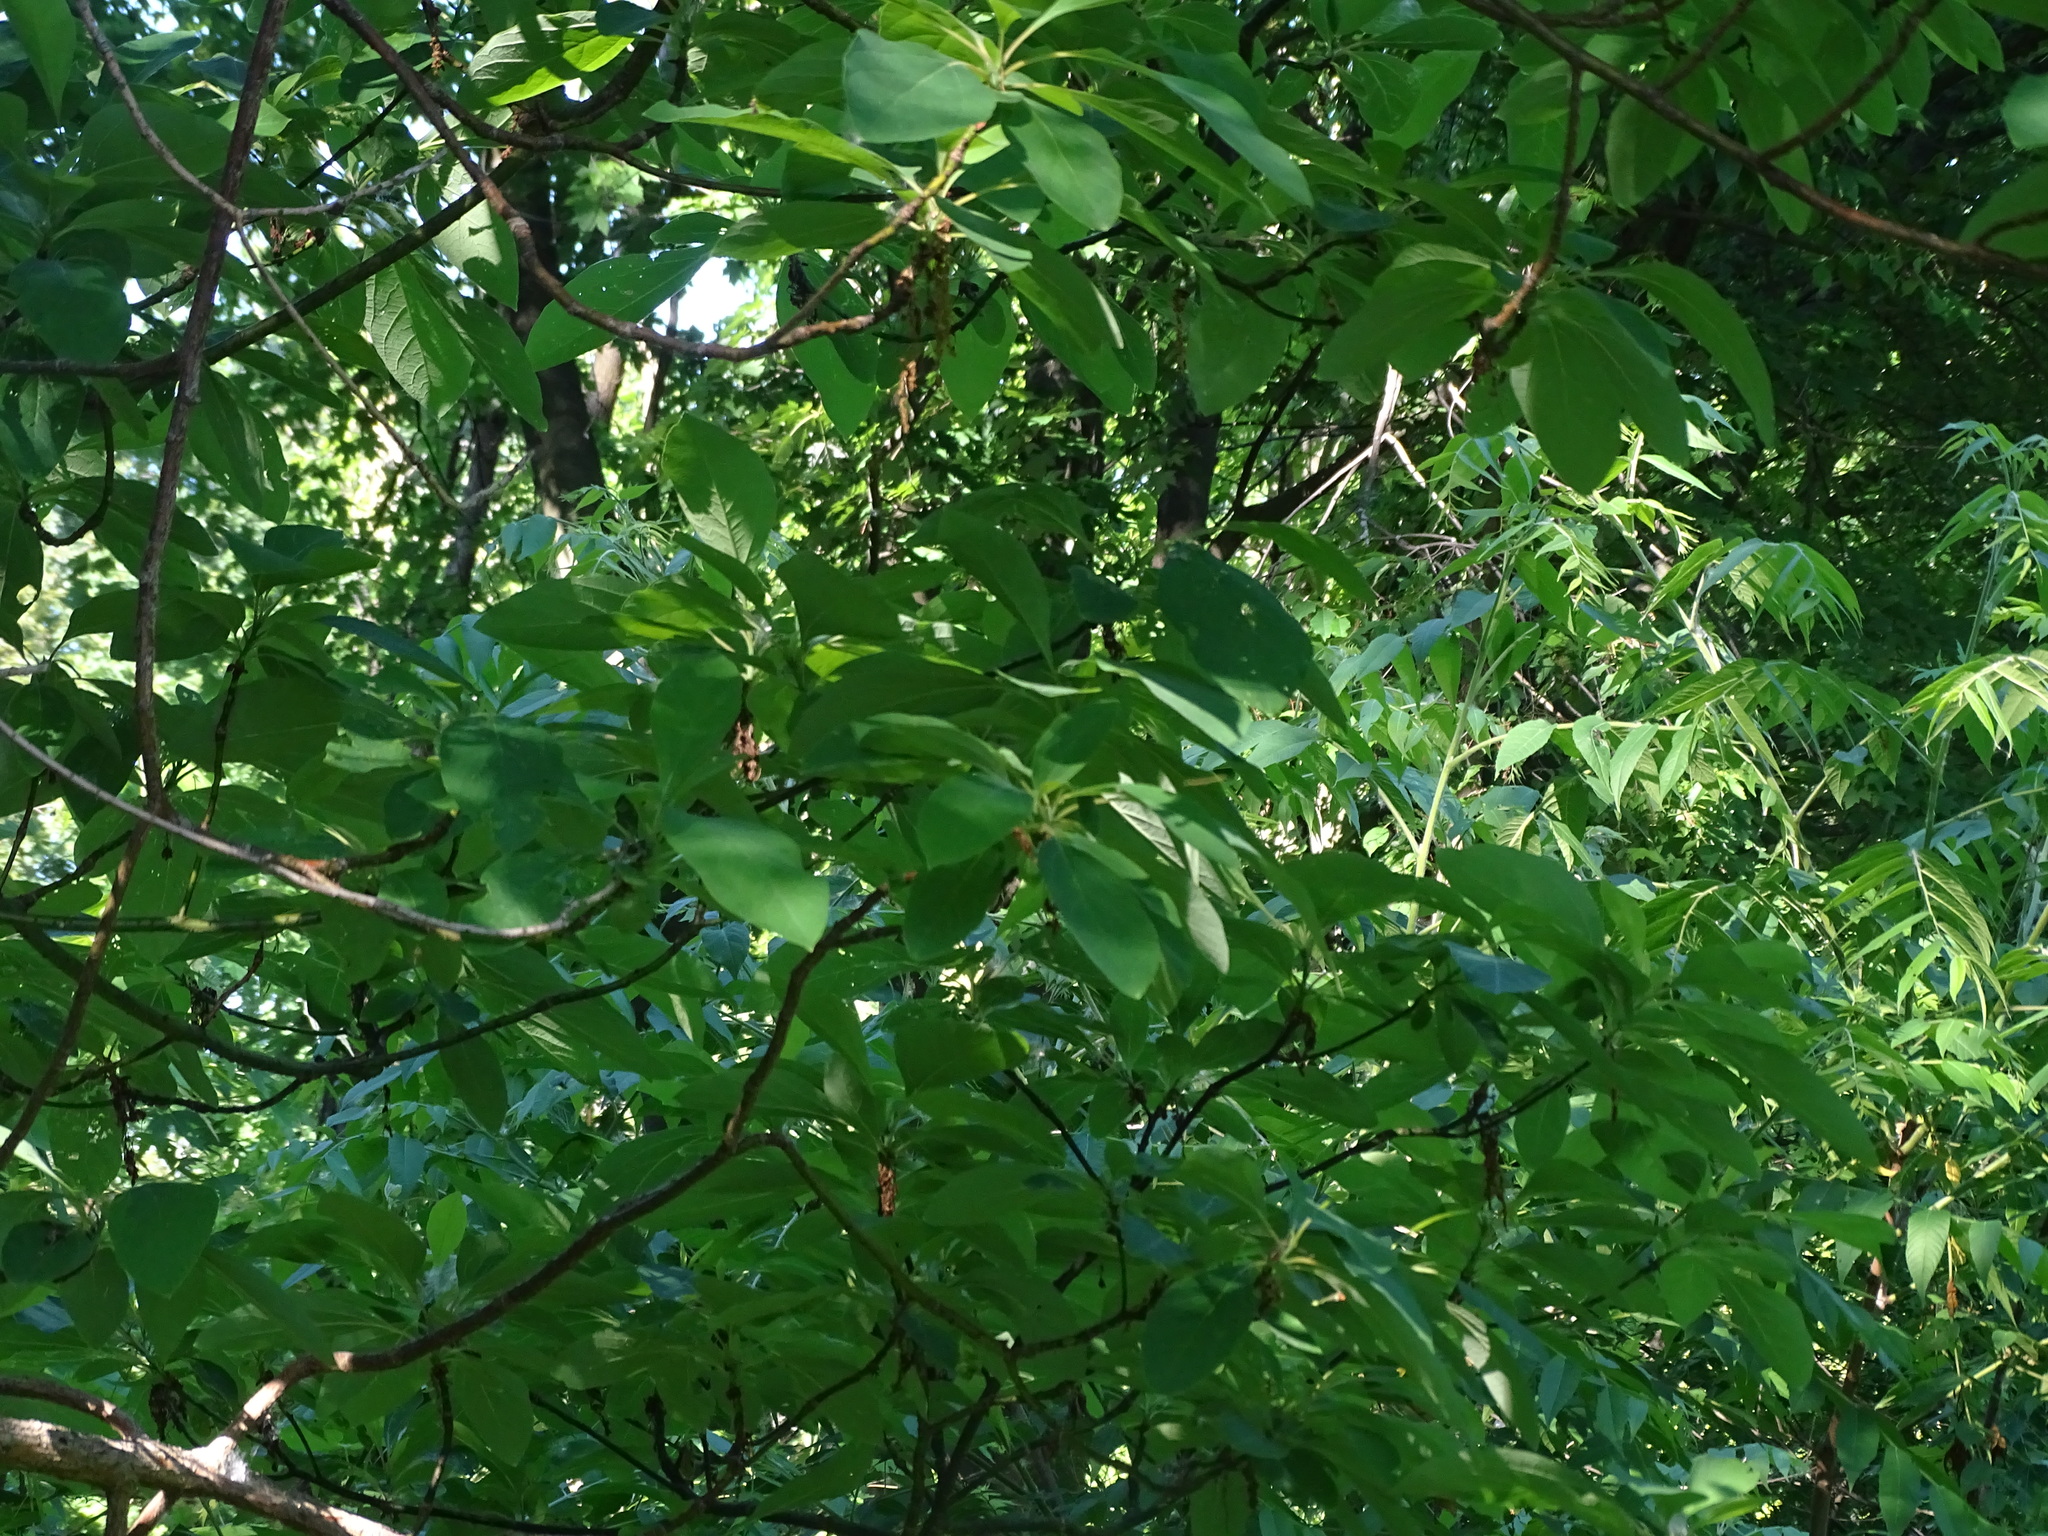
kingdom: Plantae
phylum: Tracheophyta
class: Magnoliopsida
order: Laurales
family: Lauraceae
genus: Sassafras
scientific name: Sassafras albidum
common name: Sassafras
